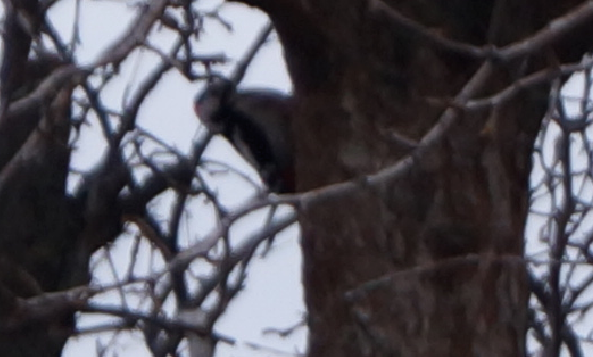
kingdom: Animalia
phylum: Chordata
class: Aves
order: Piciformes
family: Picidae
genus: Dendrocopos
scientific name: Dendrocopos syriacus
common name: Syrian woodpecker
